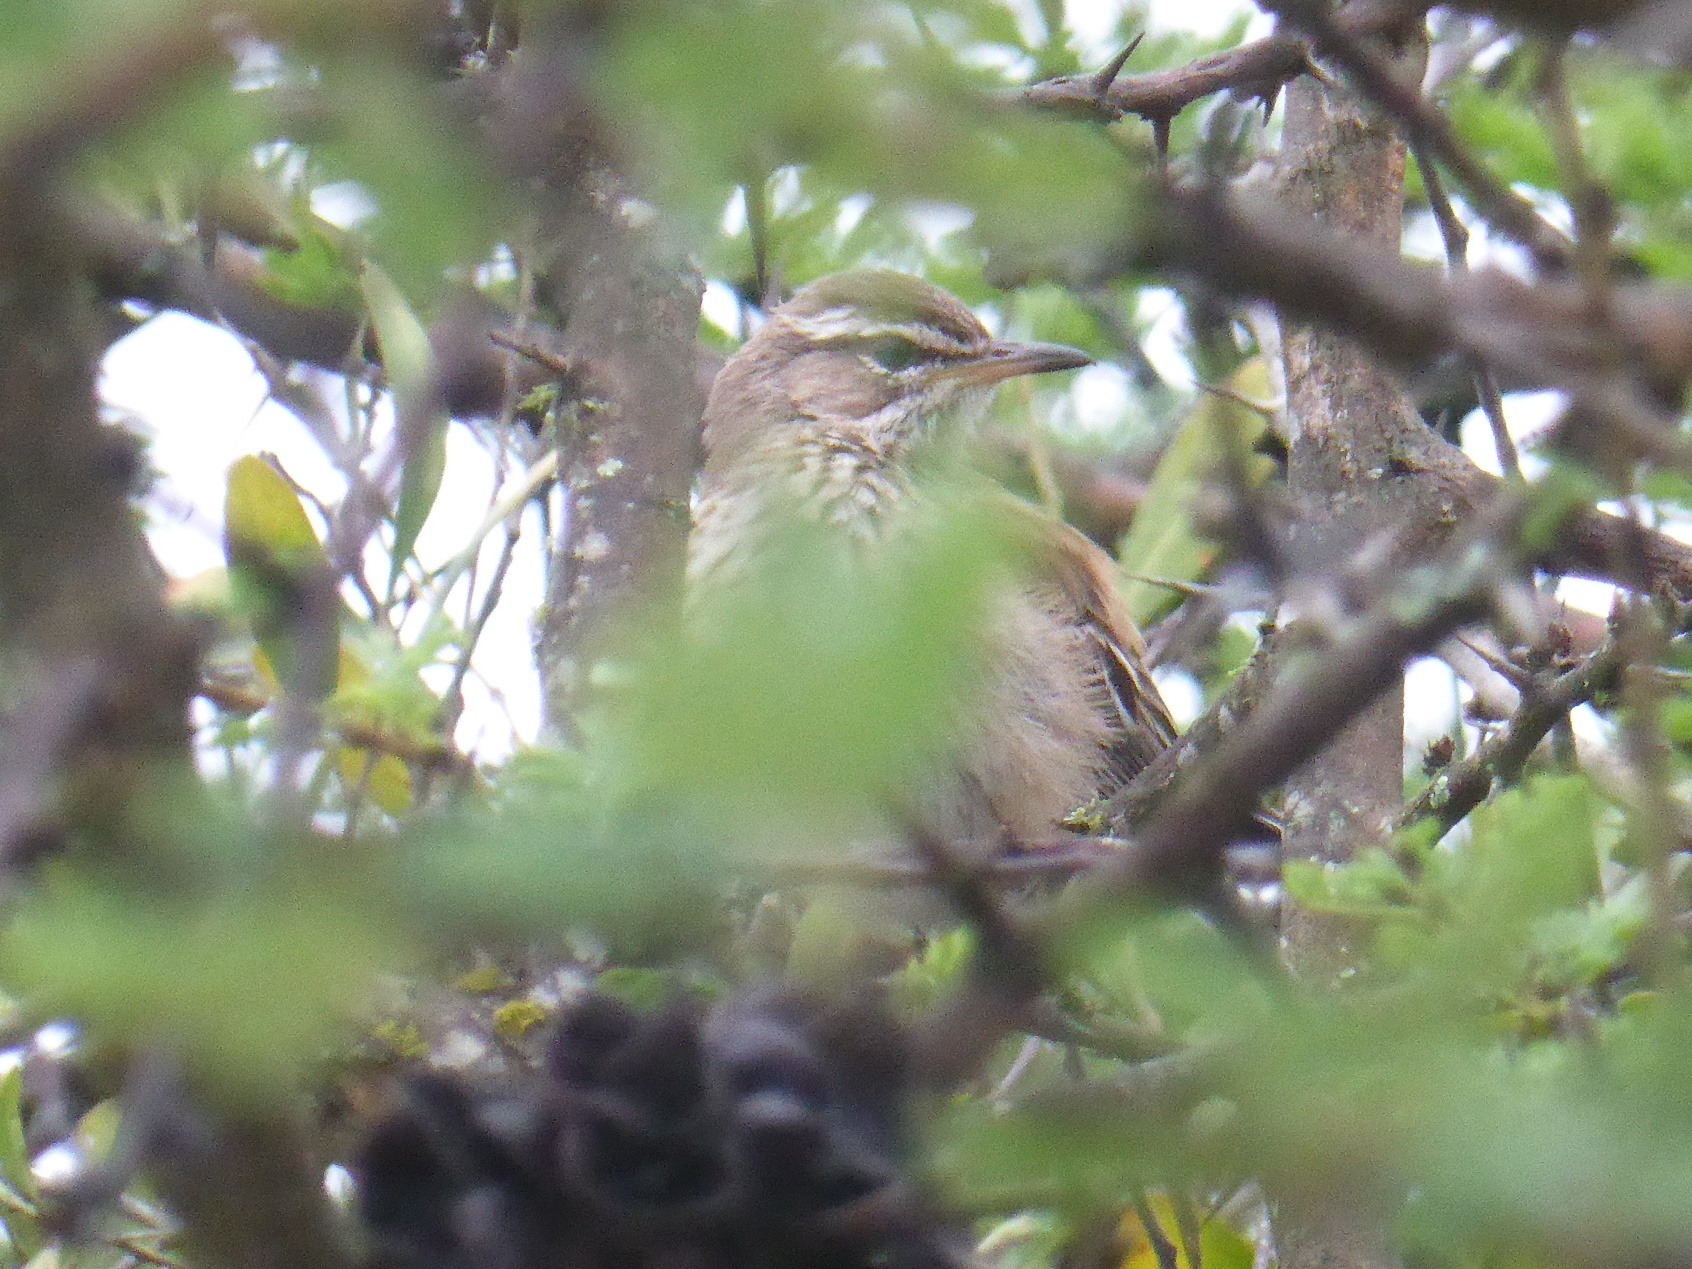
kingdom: Animalia
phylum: Chordata
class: Aves
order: Passeriformes
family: Muscicapidae
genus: Erythropygia
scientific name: Erythropygia leucophrys
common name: White-browed scrub robin
